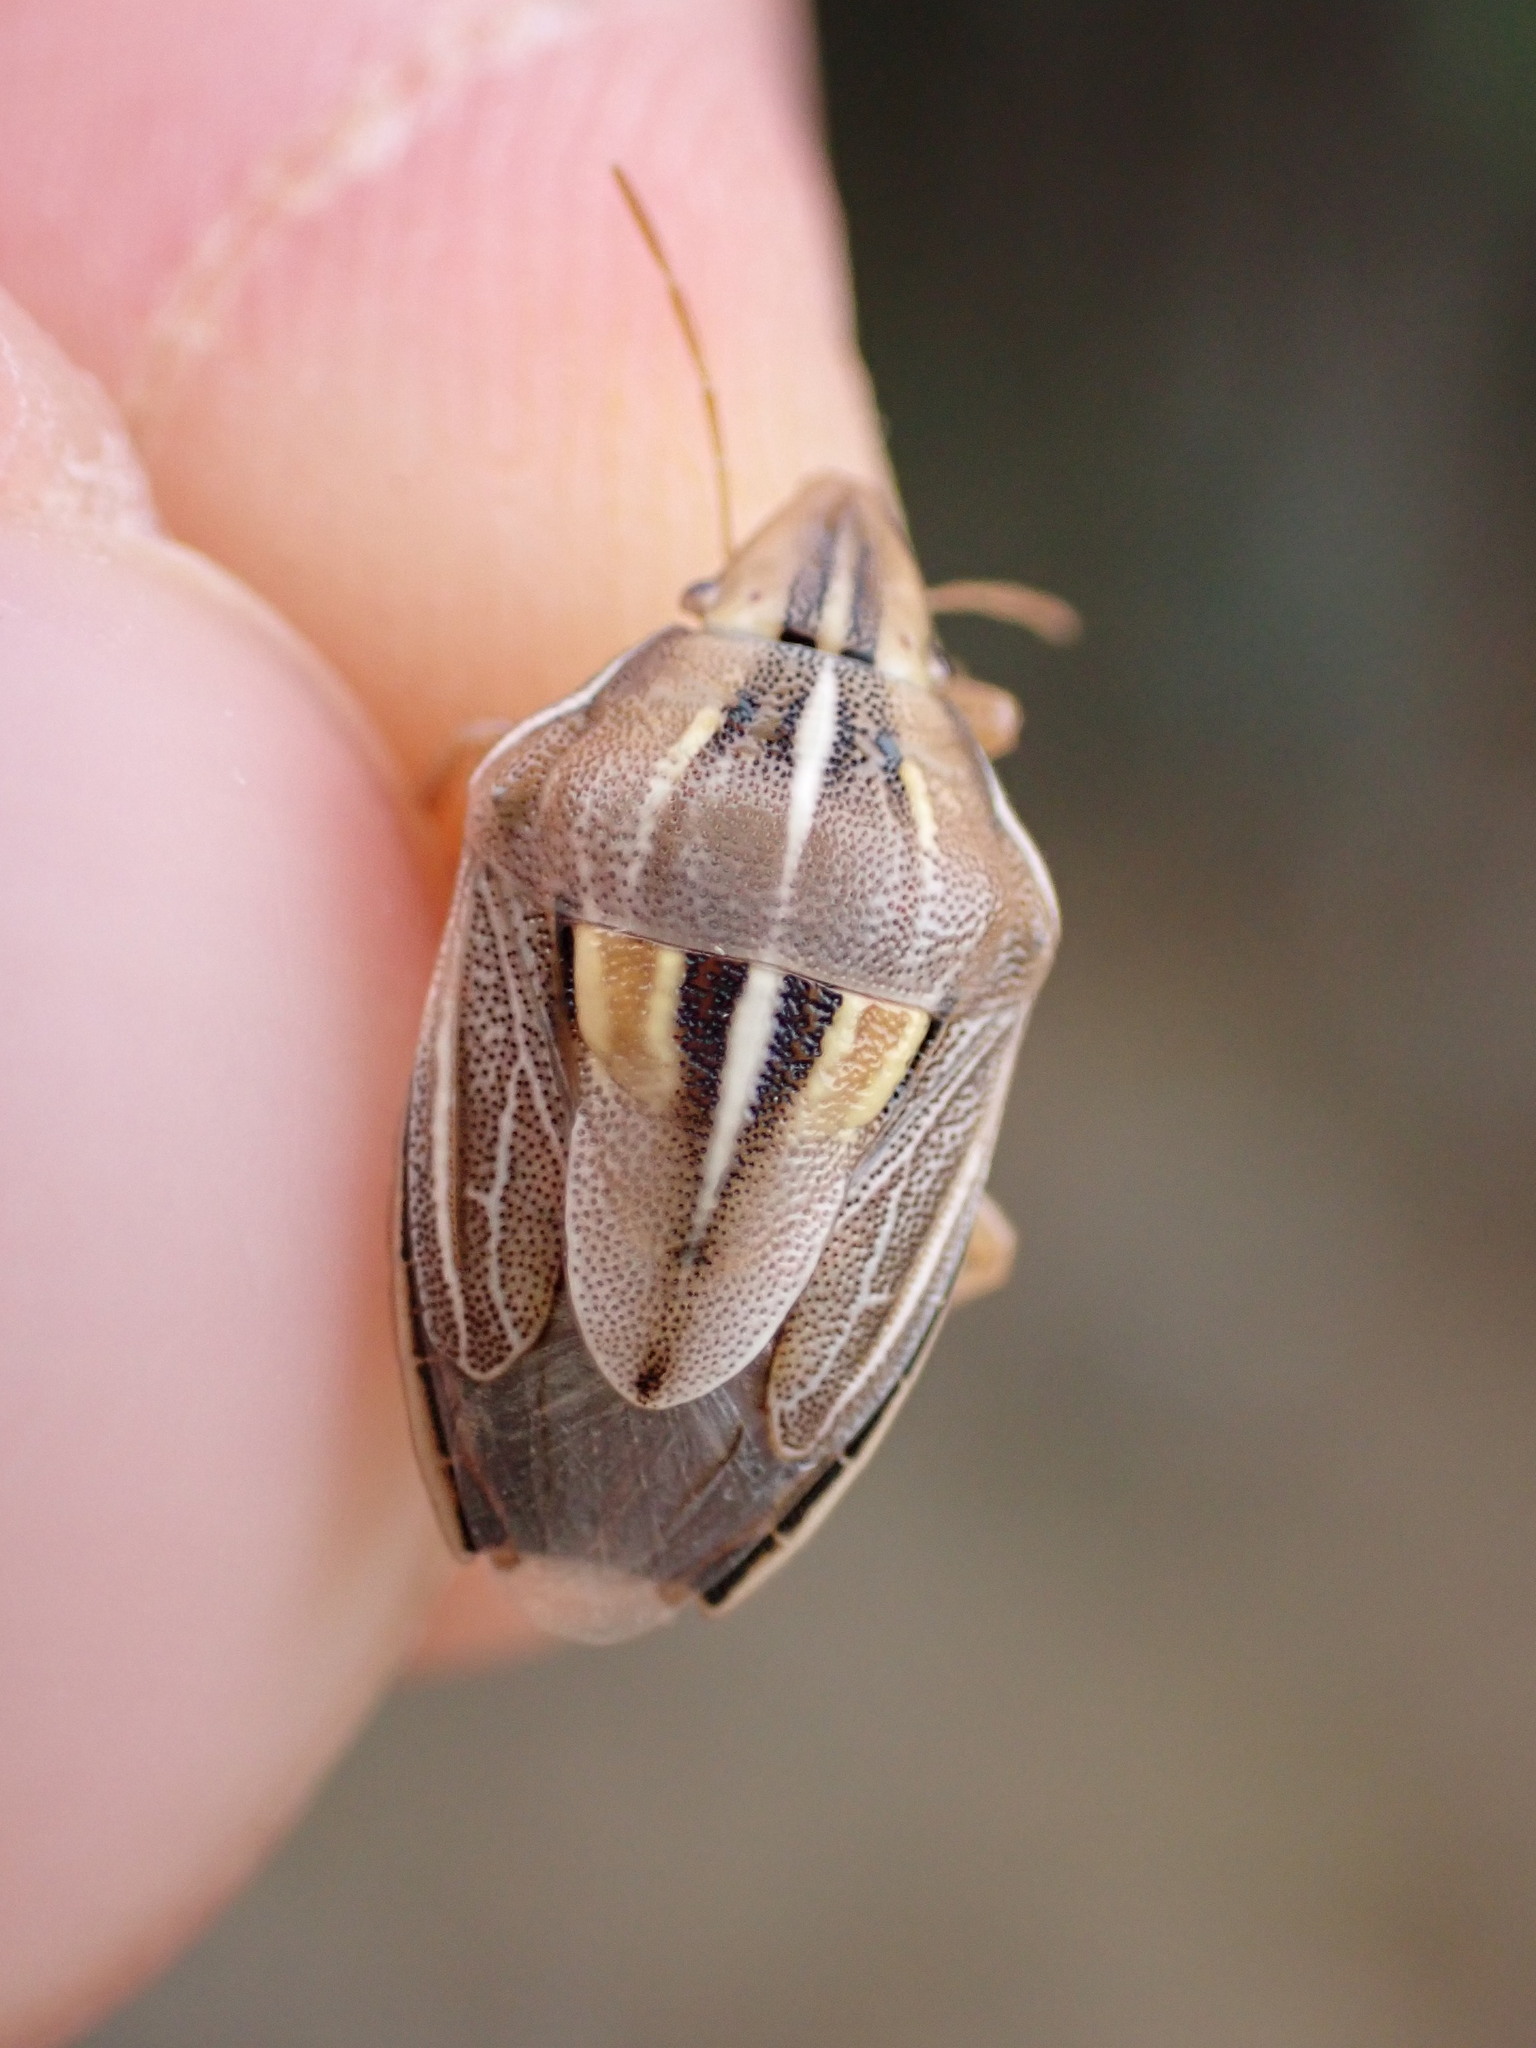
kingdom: Animalia
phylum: Arthropoda
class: Insecta
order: Hemiptera
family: Pentatomidae
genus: Aelia
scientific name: Aelia rostrata
